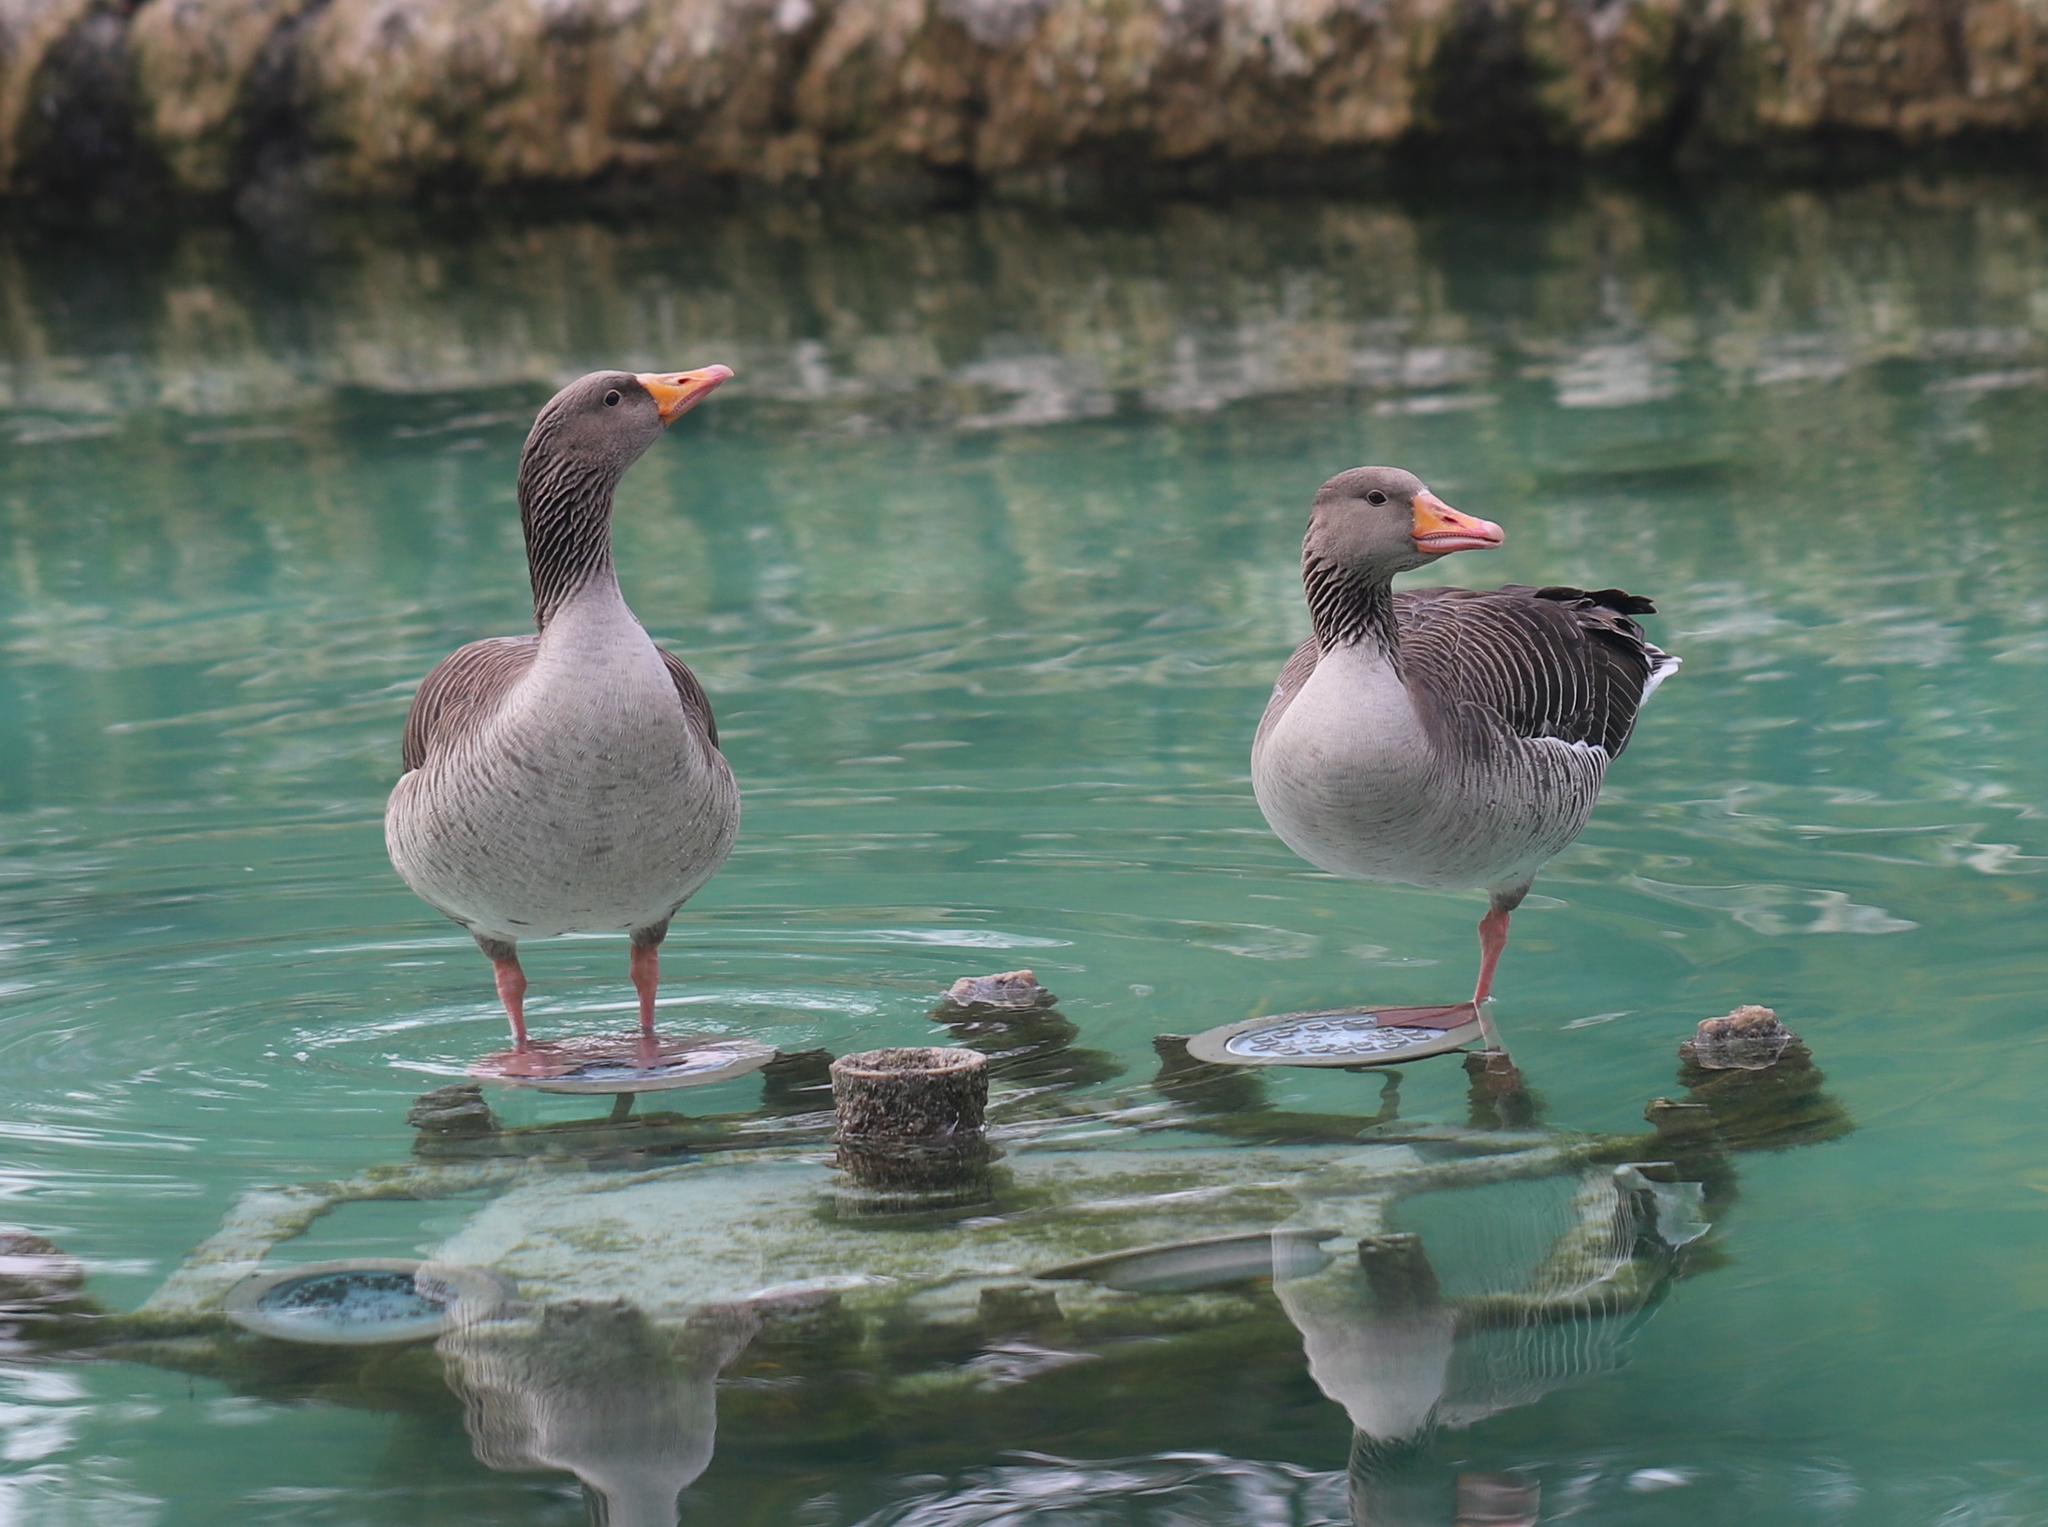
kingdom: Animalia
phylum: Chordata
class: Aves
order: Anseriformes
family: Anatidae
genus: Anser
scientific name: Anser anser
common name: Greylag goose
